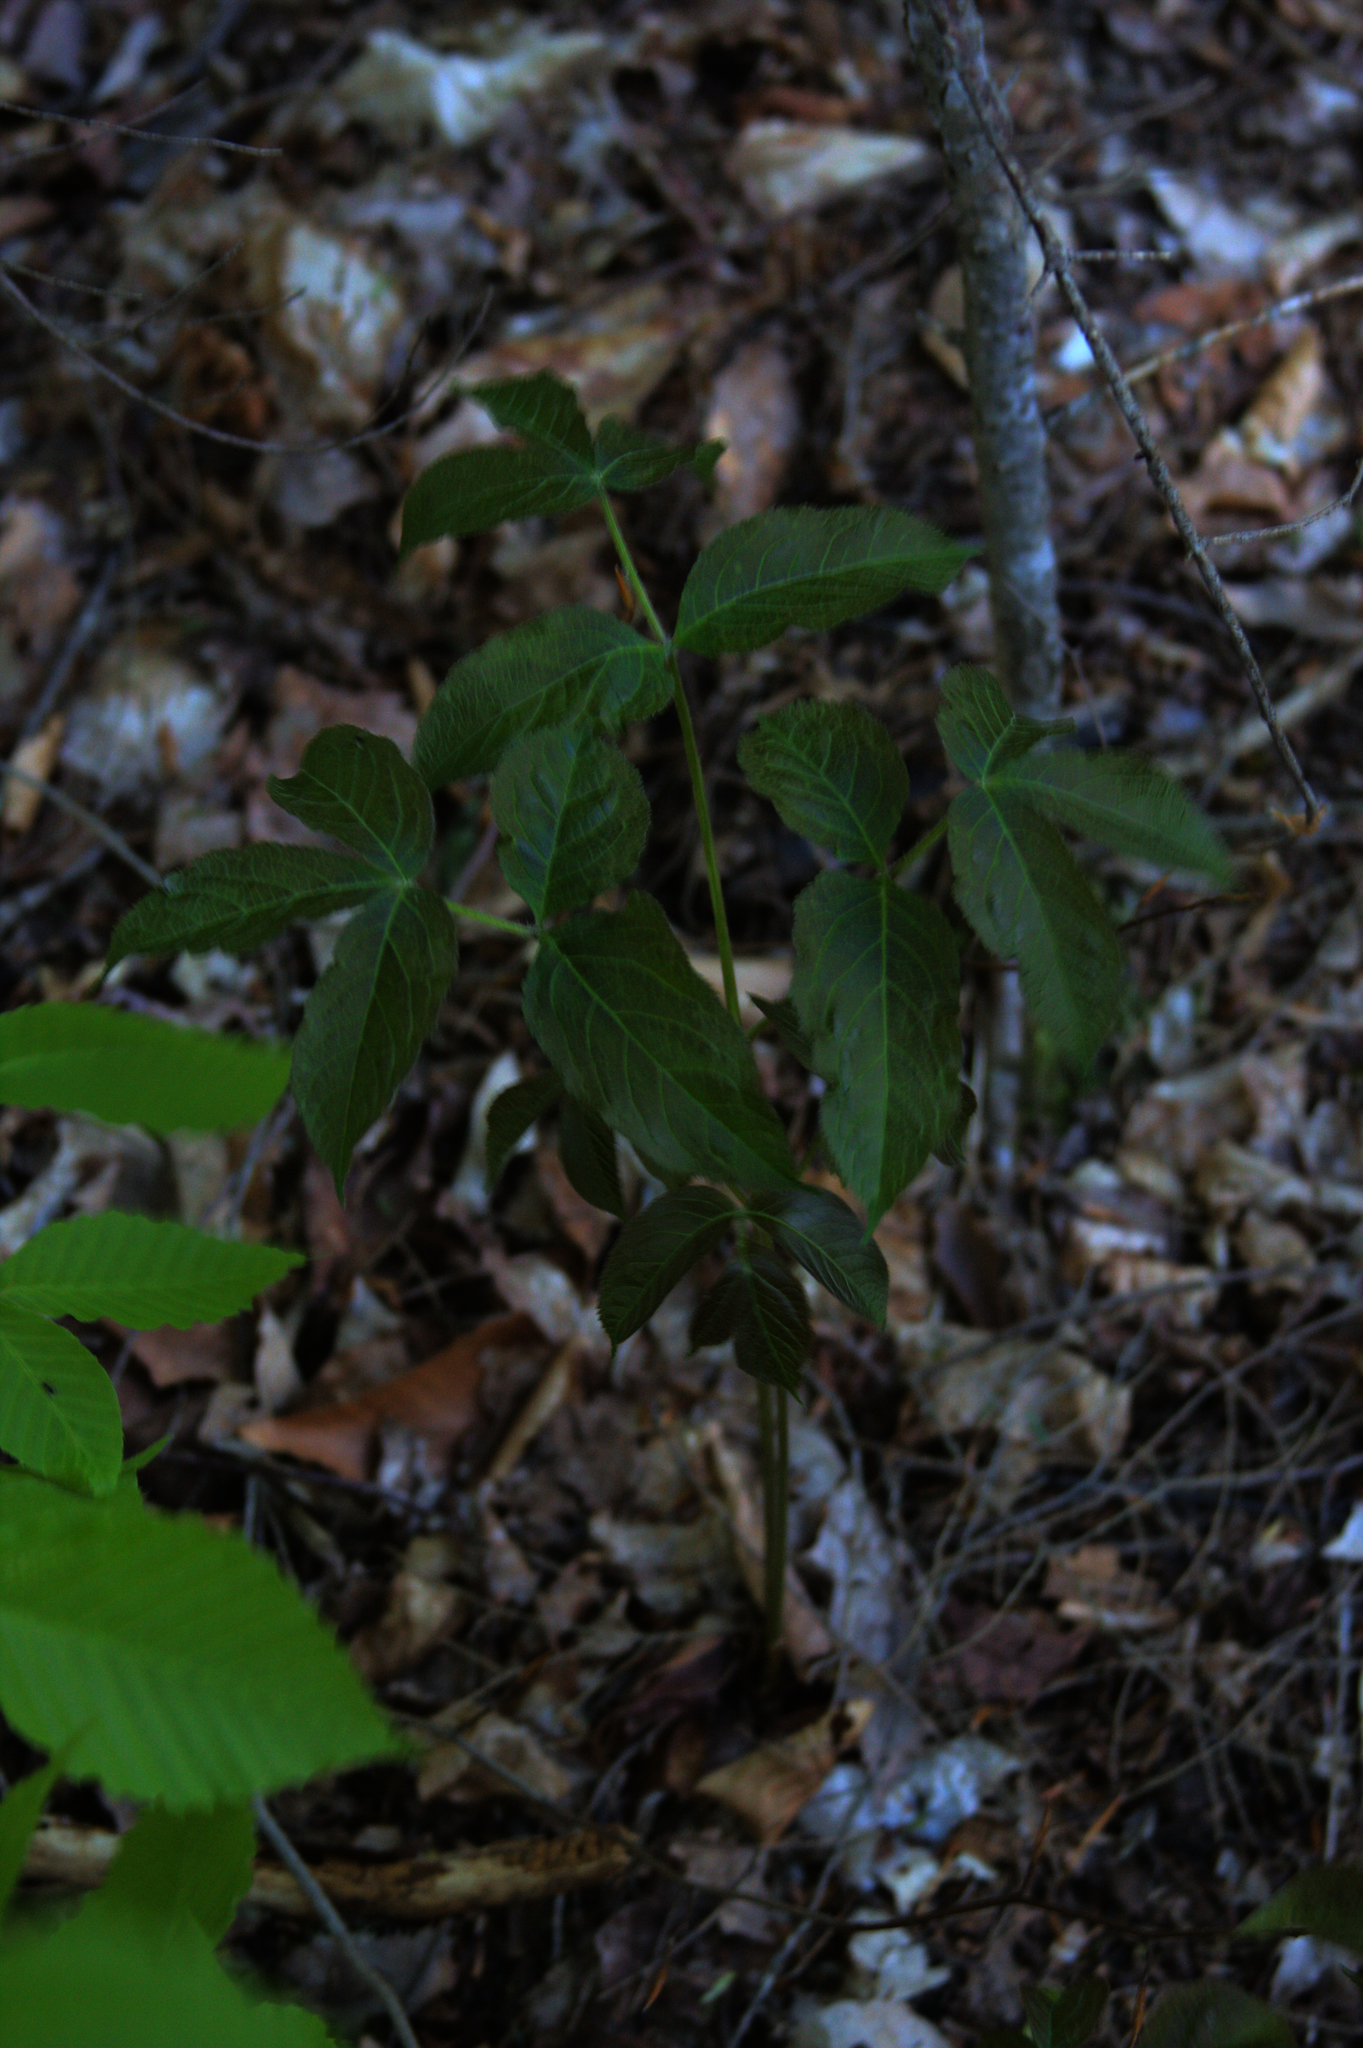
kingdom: Plantae
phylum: Tracheophyta
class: Magnoliopsida
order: Apiales
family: Araliaceae
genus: Aralia
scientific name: Aralia nudicaulis
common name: Wild sarsaparilla
